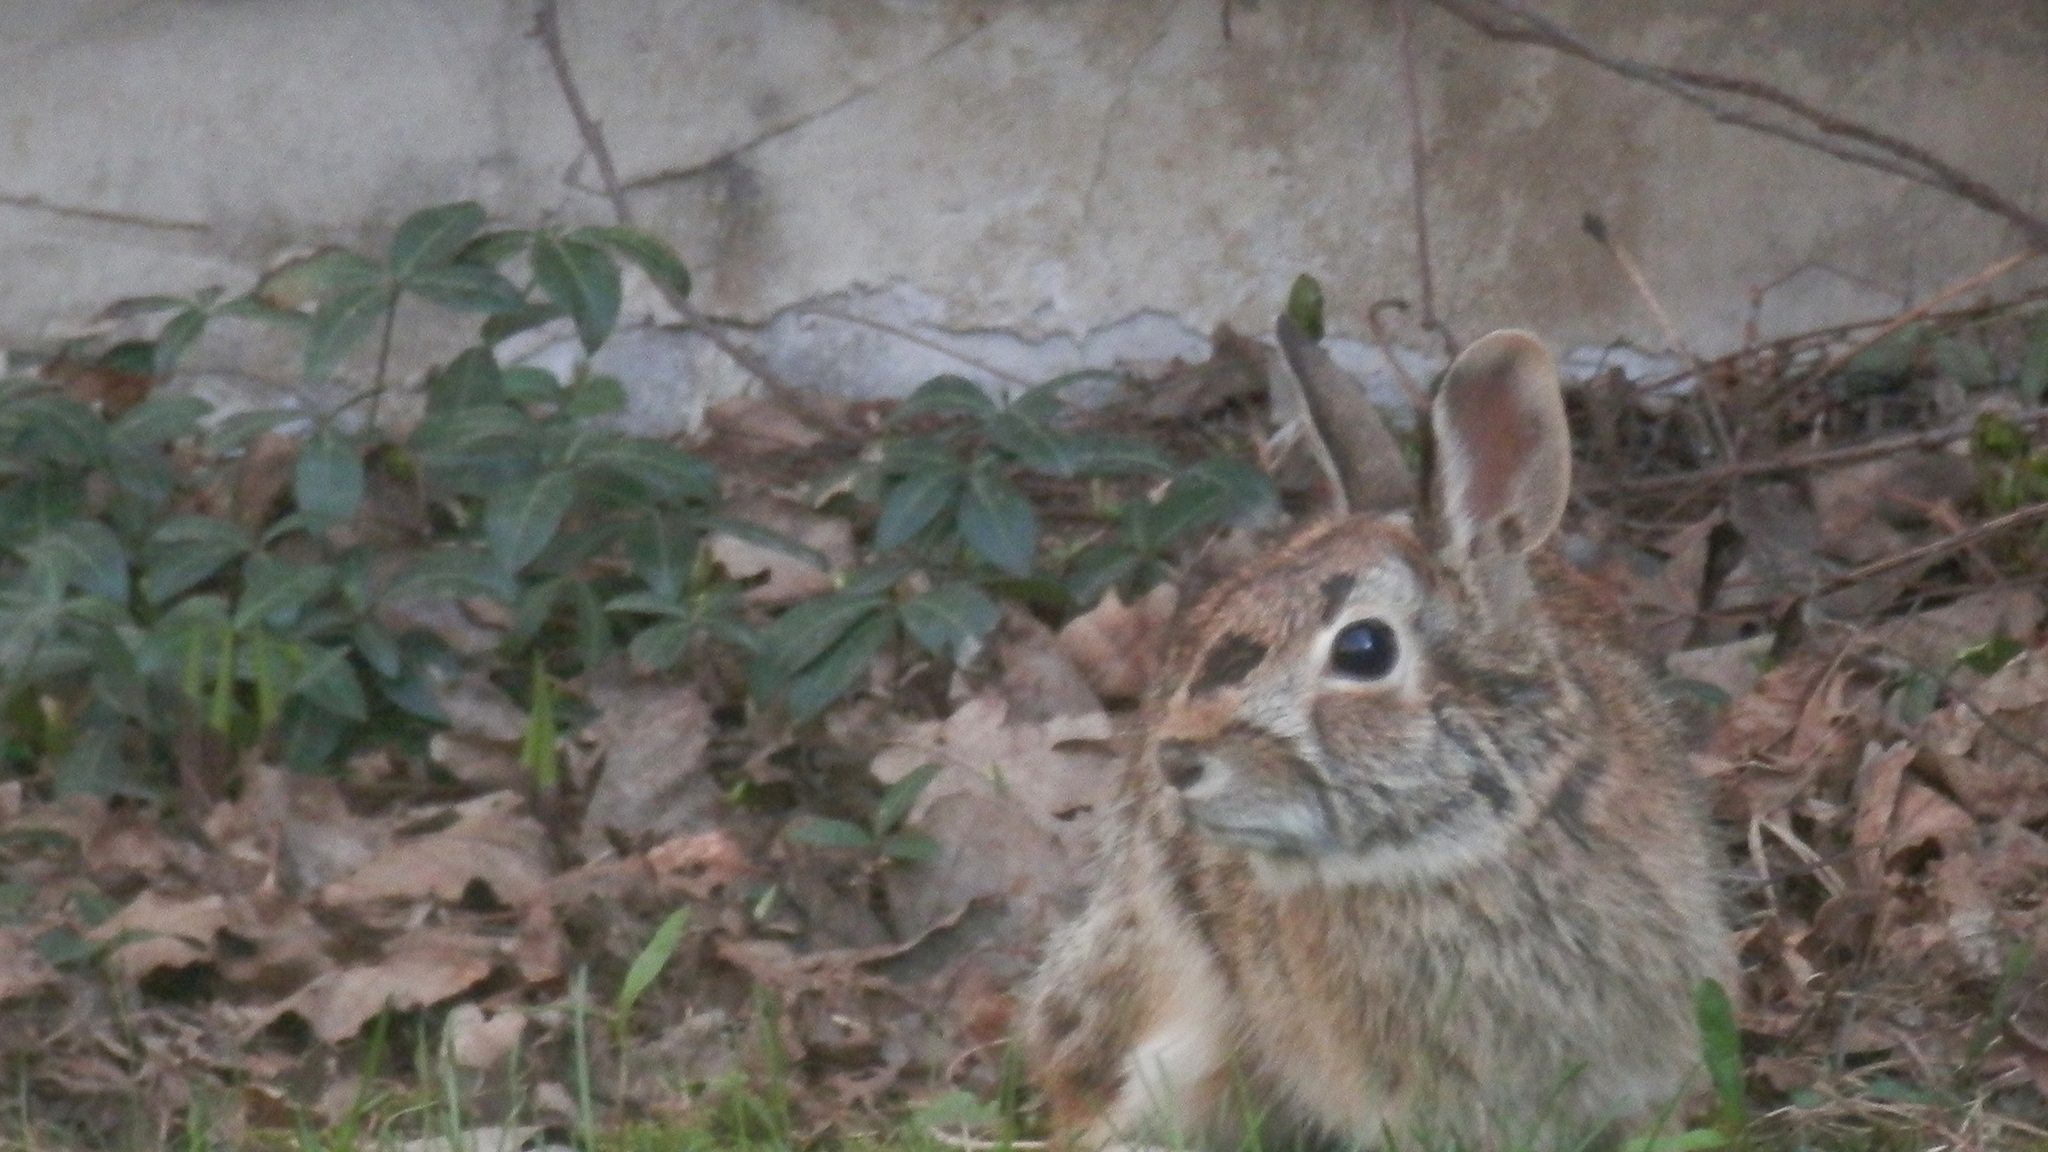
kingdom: Animalia
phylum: Chordata
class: Mammalia
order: Lagomorpha
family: Leporidae
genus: Sylvilagus
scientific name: Sylvilagus floridanus
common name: Eastern cottontail
